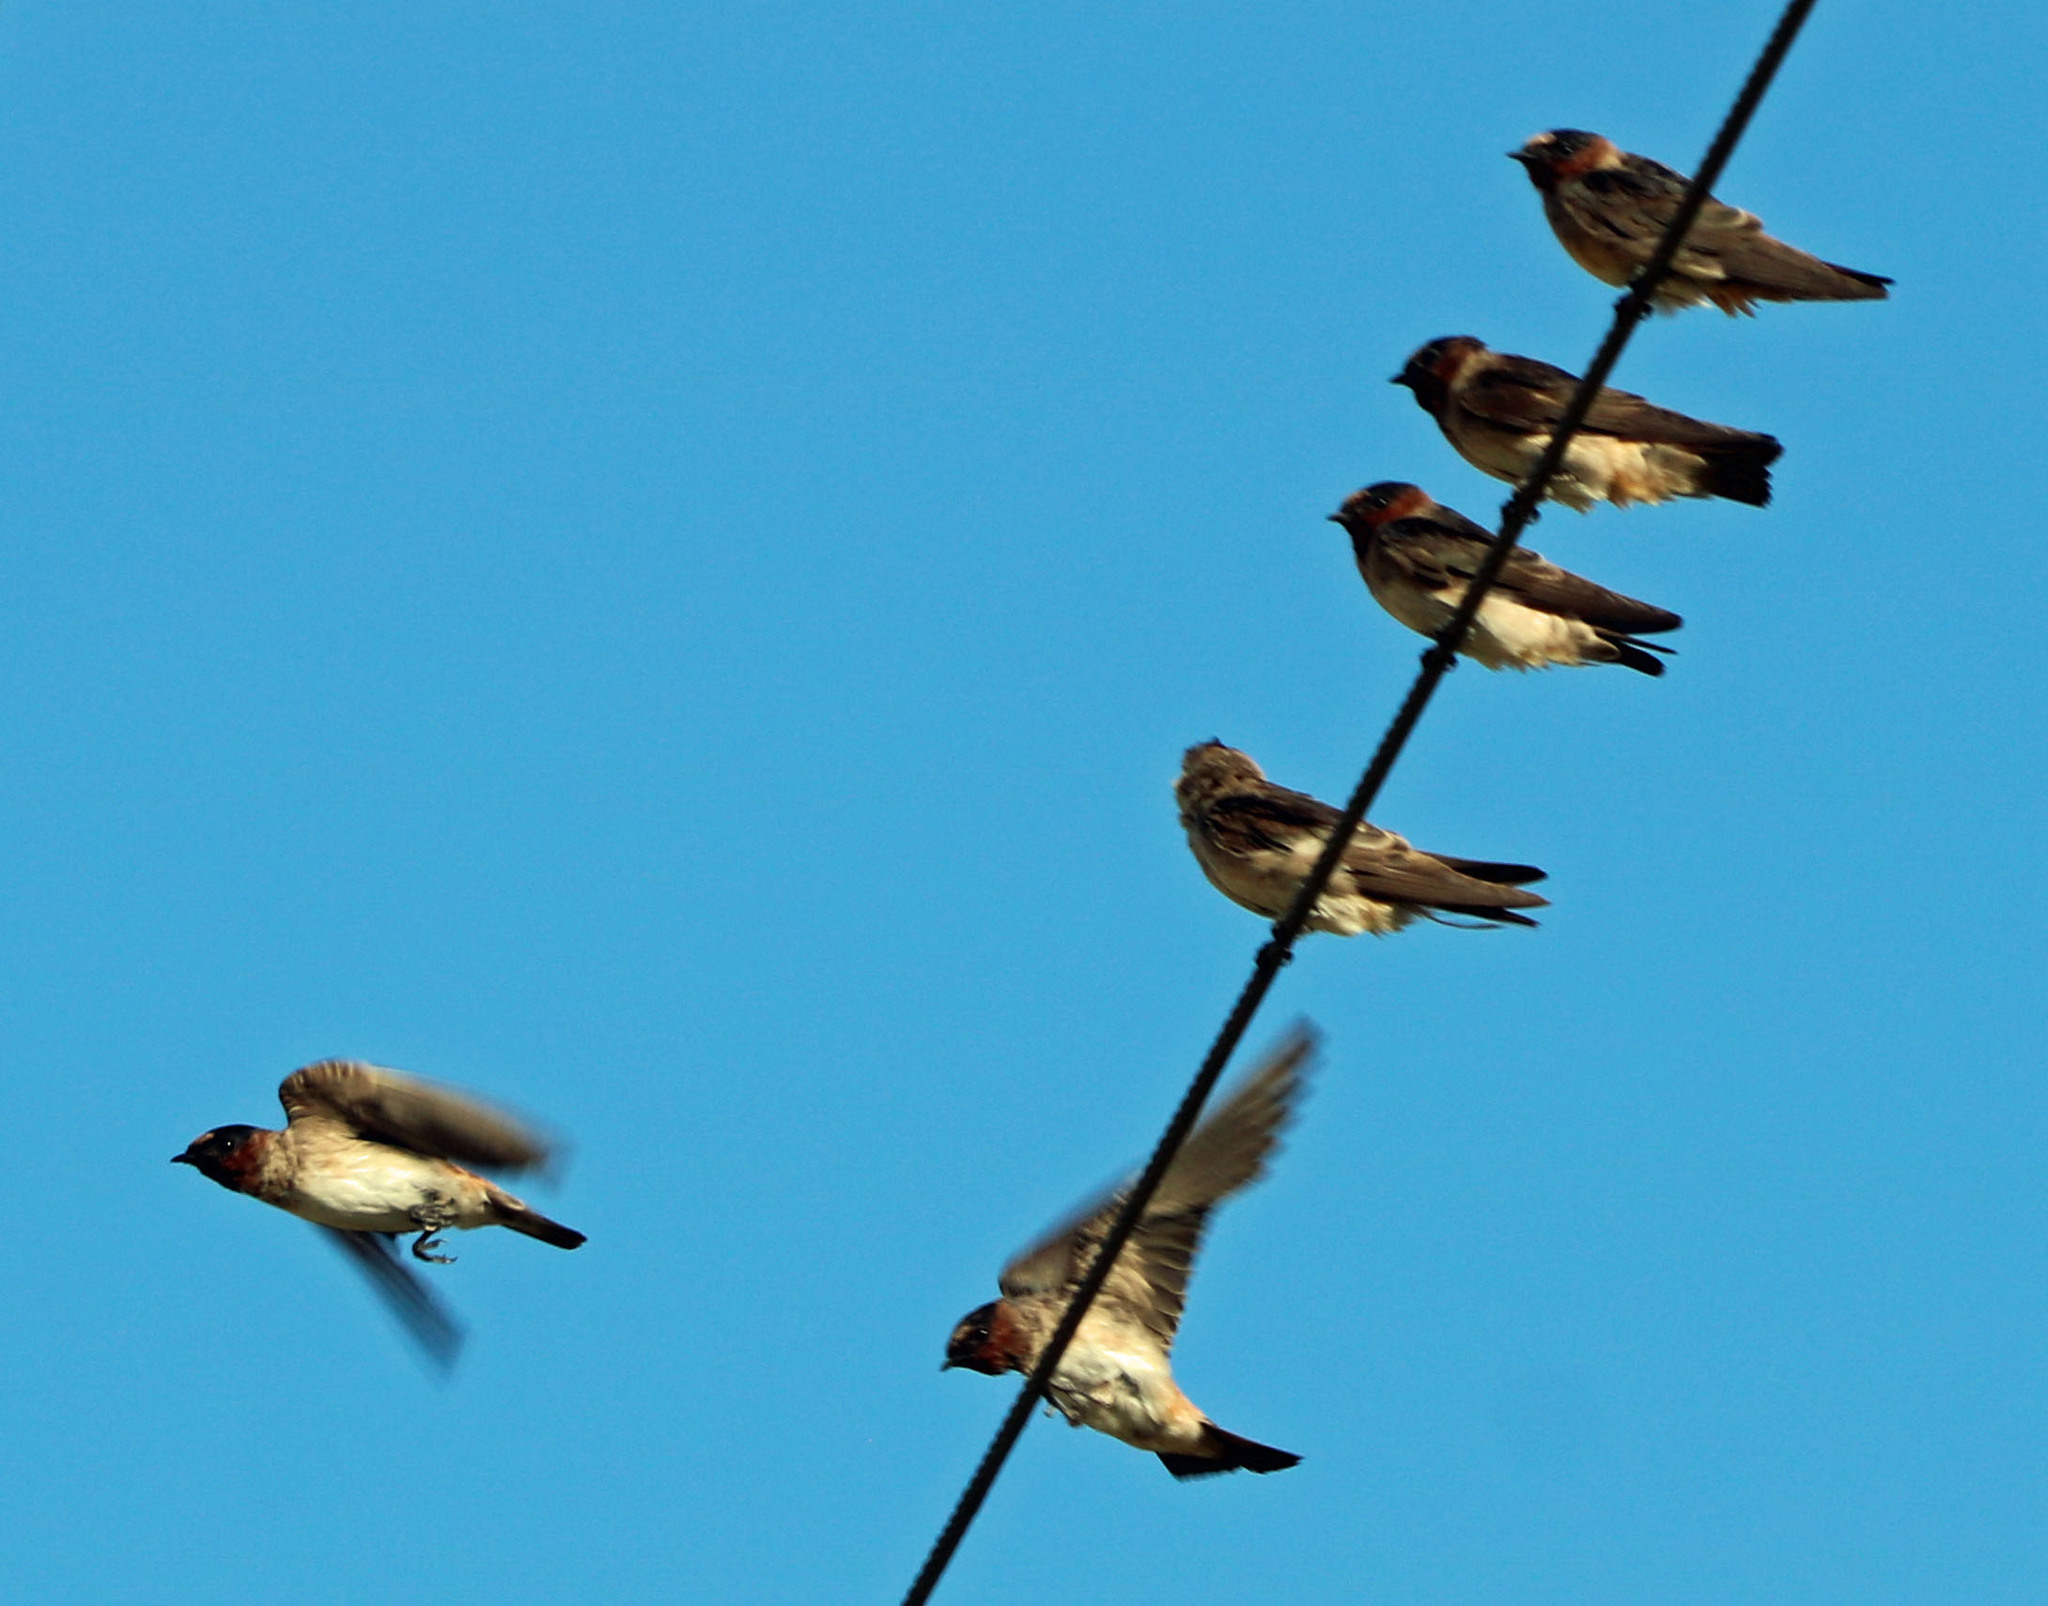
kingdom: Animalia
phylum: Chordata
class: Aves
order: Passeriformes
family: Hirundinidae
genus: Petrochelidon
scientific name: Petrochelidon pyrrhonota
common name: American cliff swallow
